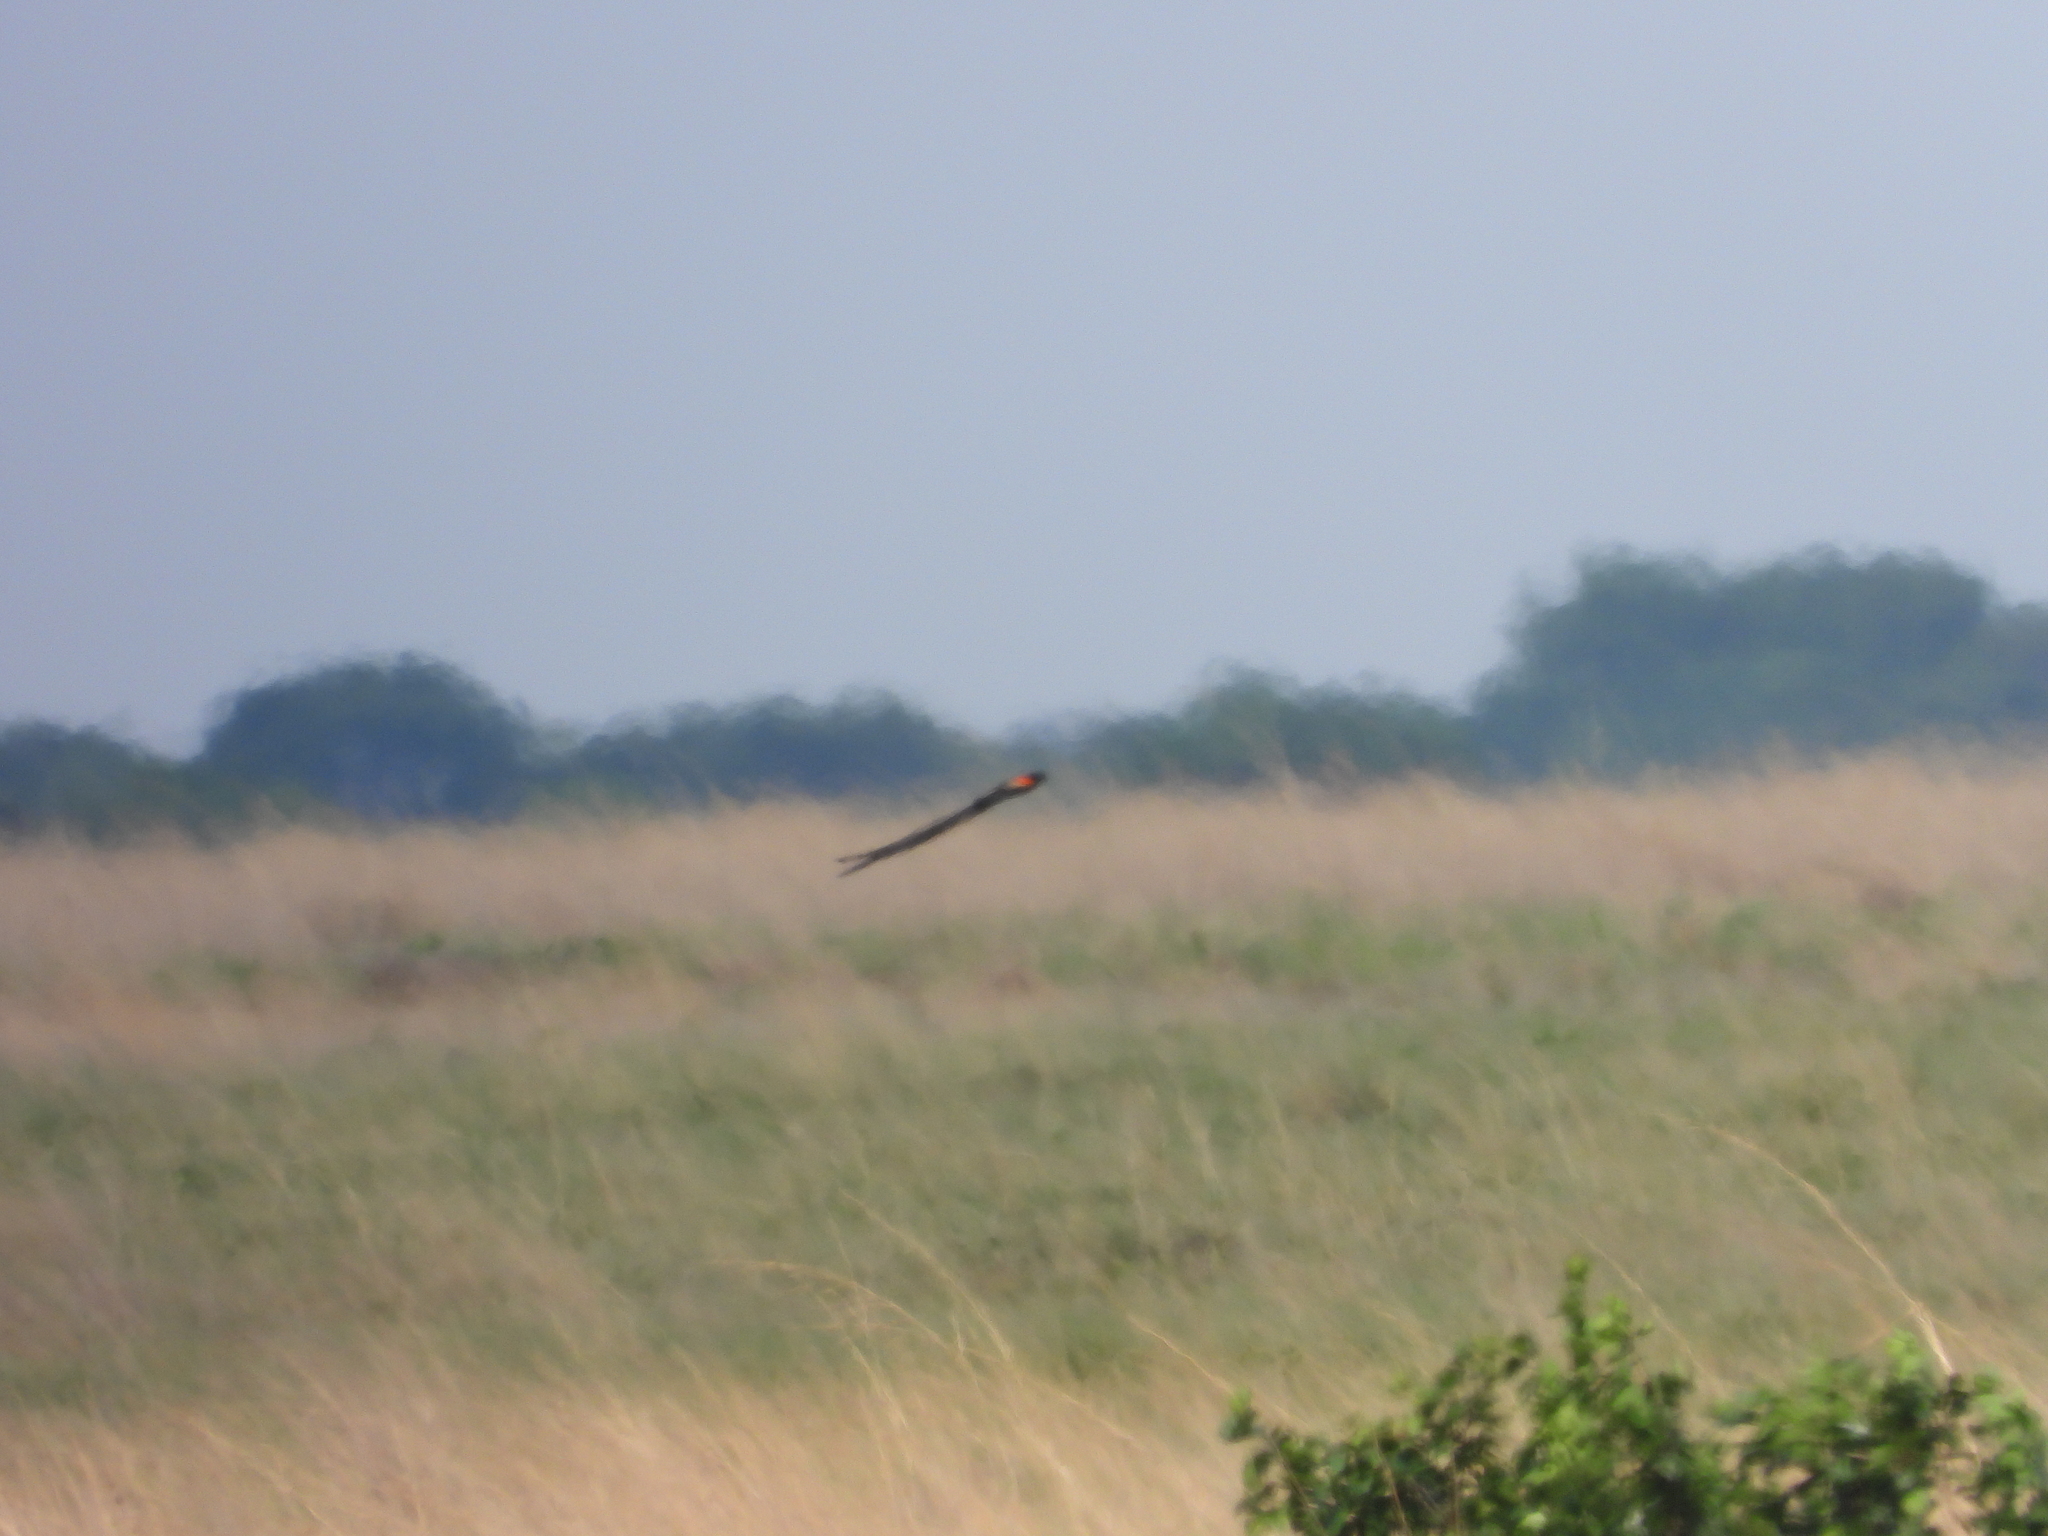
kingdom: Animalia
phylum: Chordata
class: Aves
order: Passeriformes
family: Ploceidae
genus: Euplectes
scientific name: Euplectes progne
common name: Long-tailed widowbird
